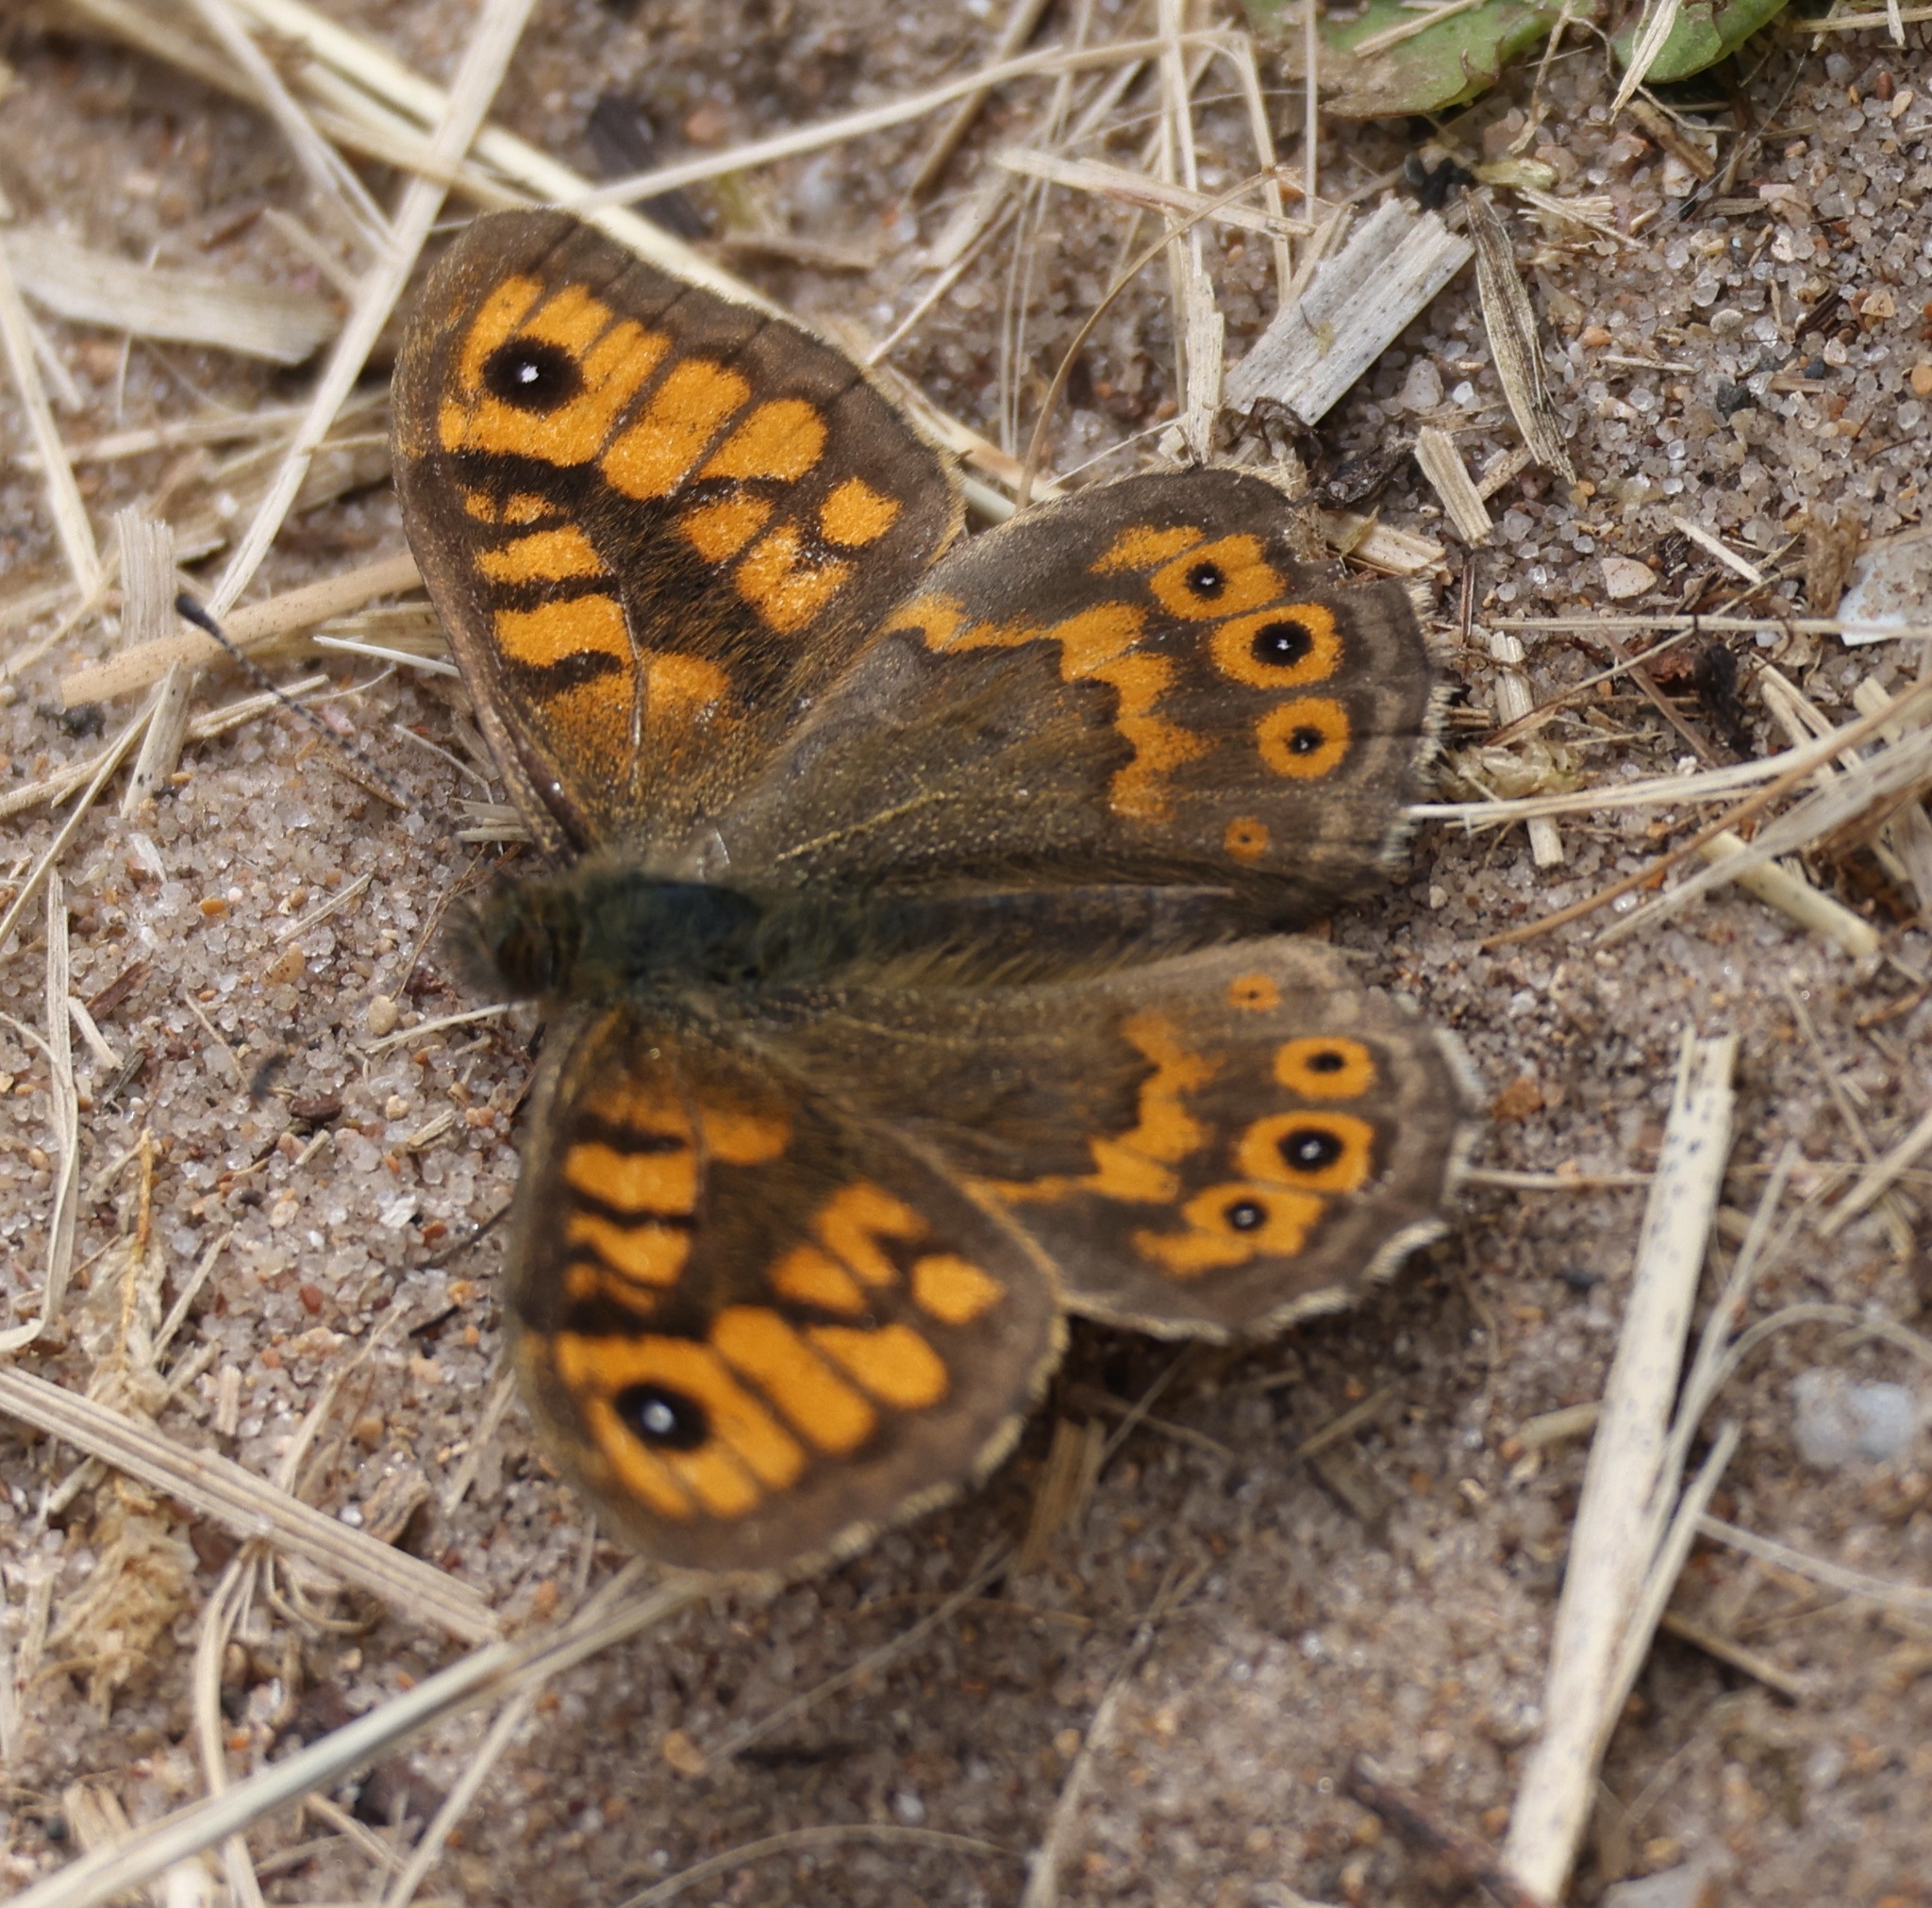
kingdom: Animalia
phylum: Arthropoda
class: Insecta
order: Lepidoptera
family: Nymphalidae
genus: Pararge
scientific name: Pararge Lasiommata megera
